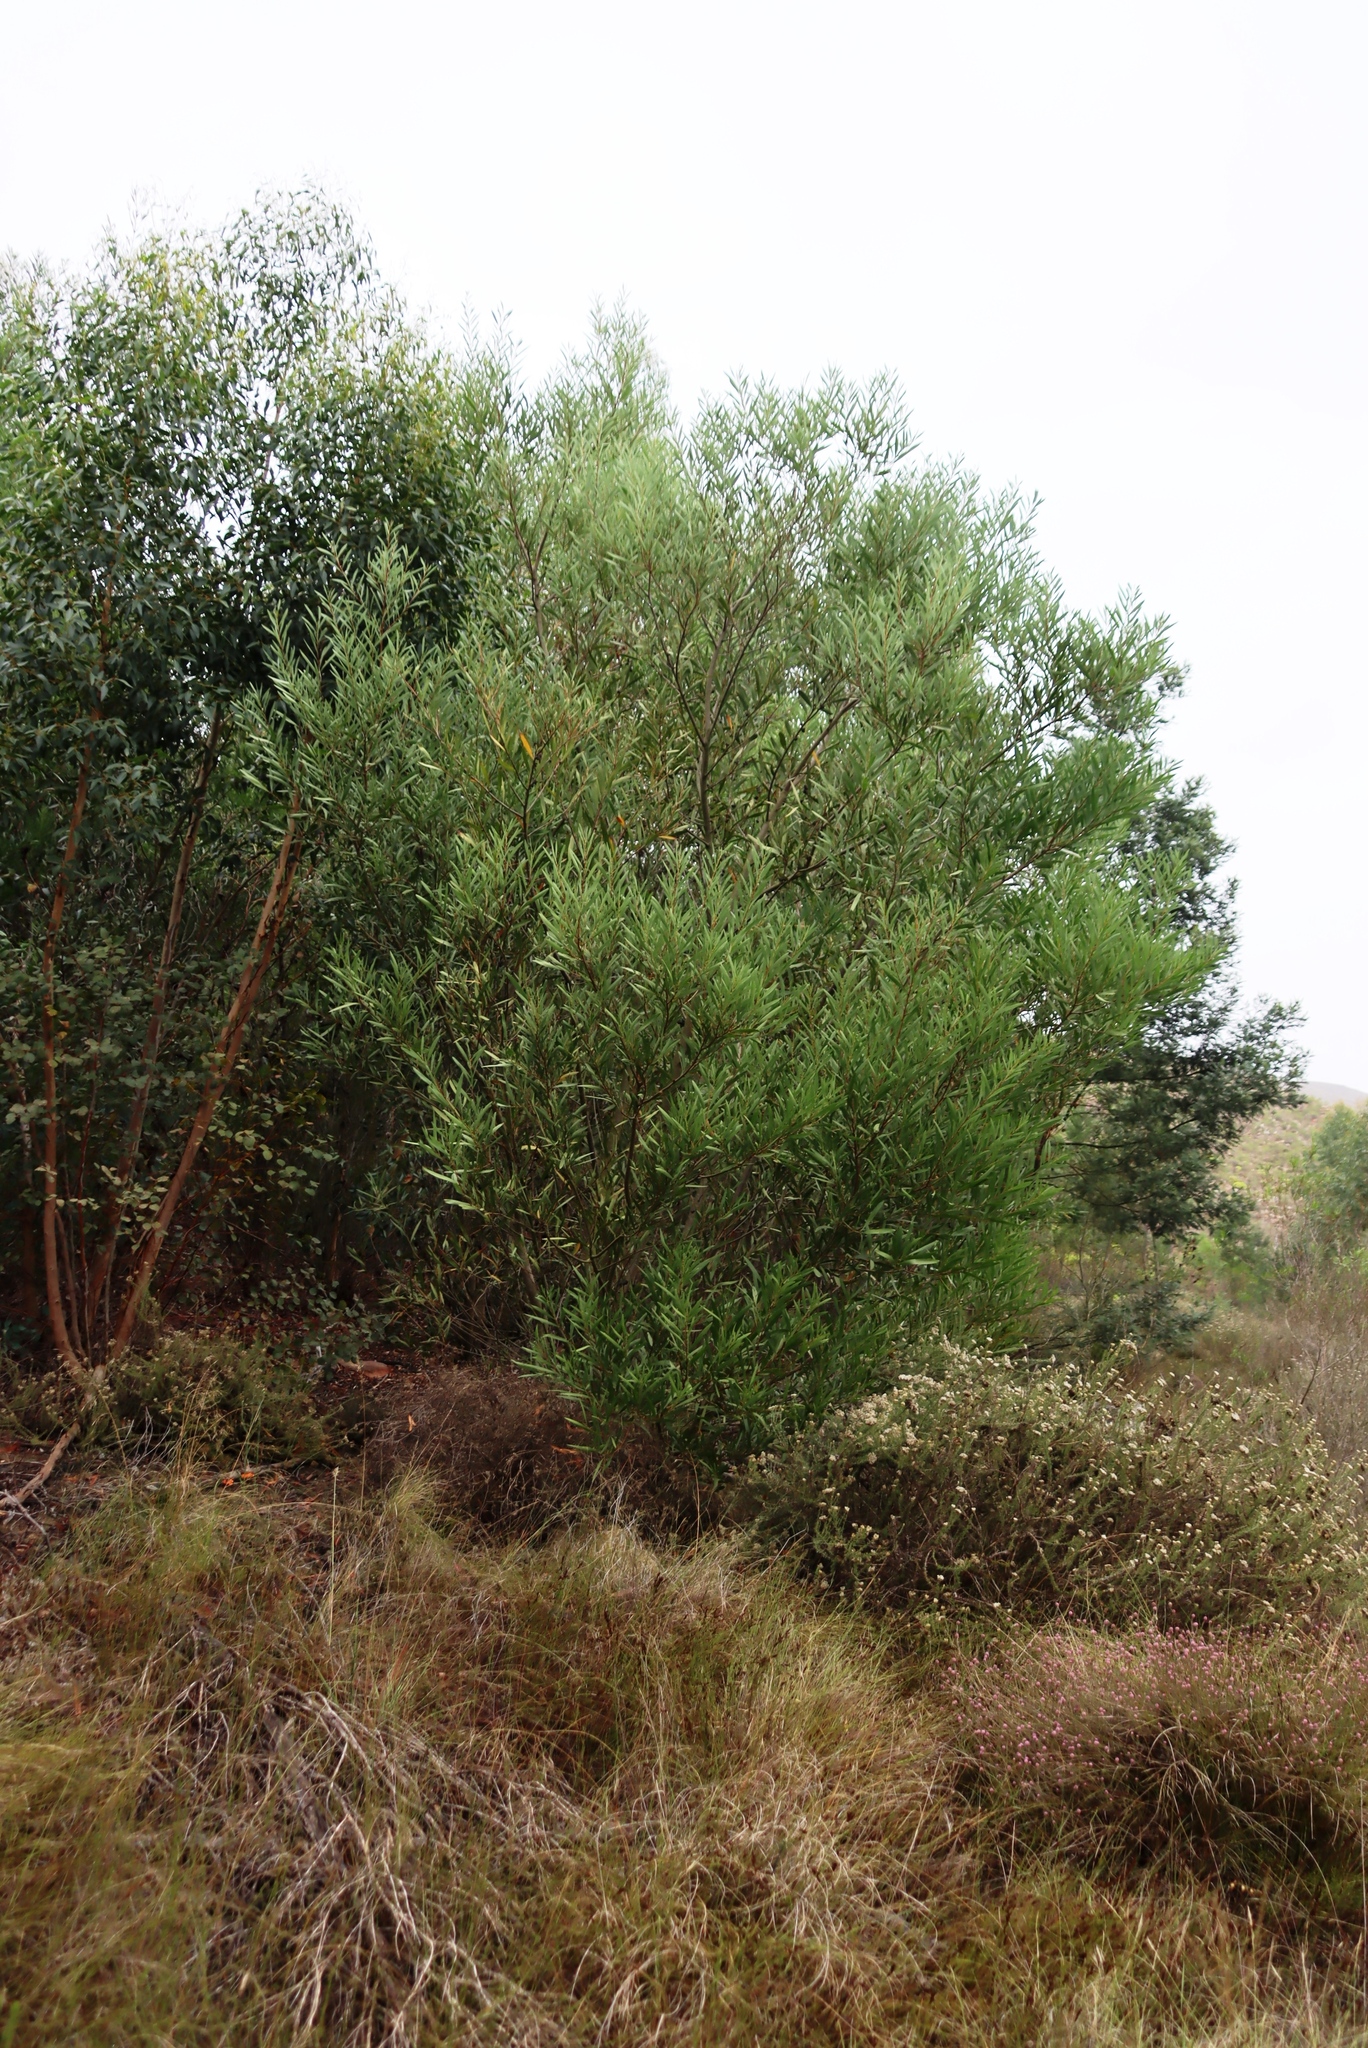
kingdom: Plantae
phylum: Tracheophyta
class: Magnoliopsida
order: Fabales
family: Fabaceae
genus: Acacia
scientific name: Acacia longifolia
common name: Sydney golden wattle
